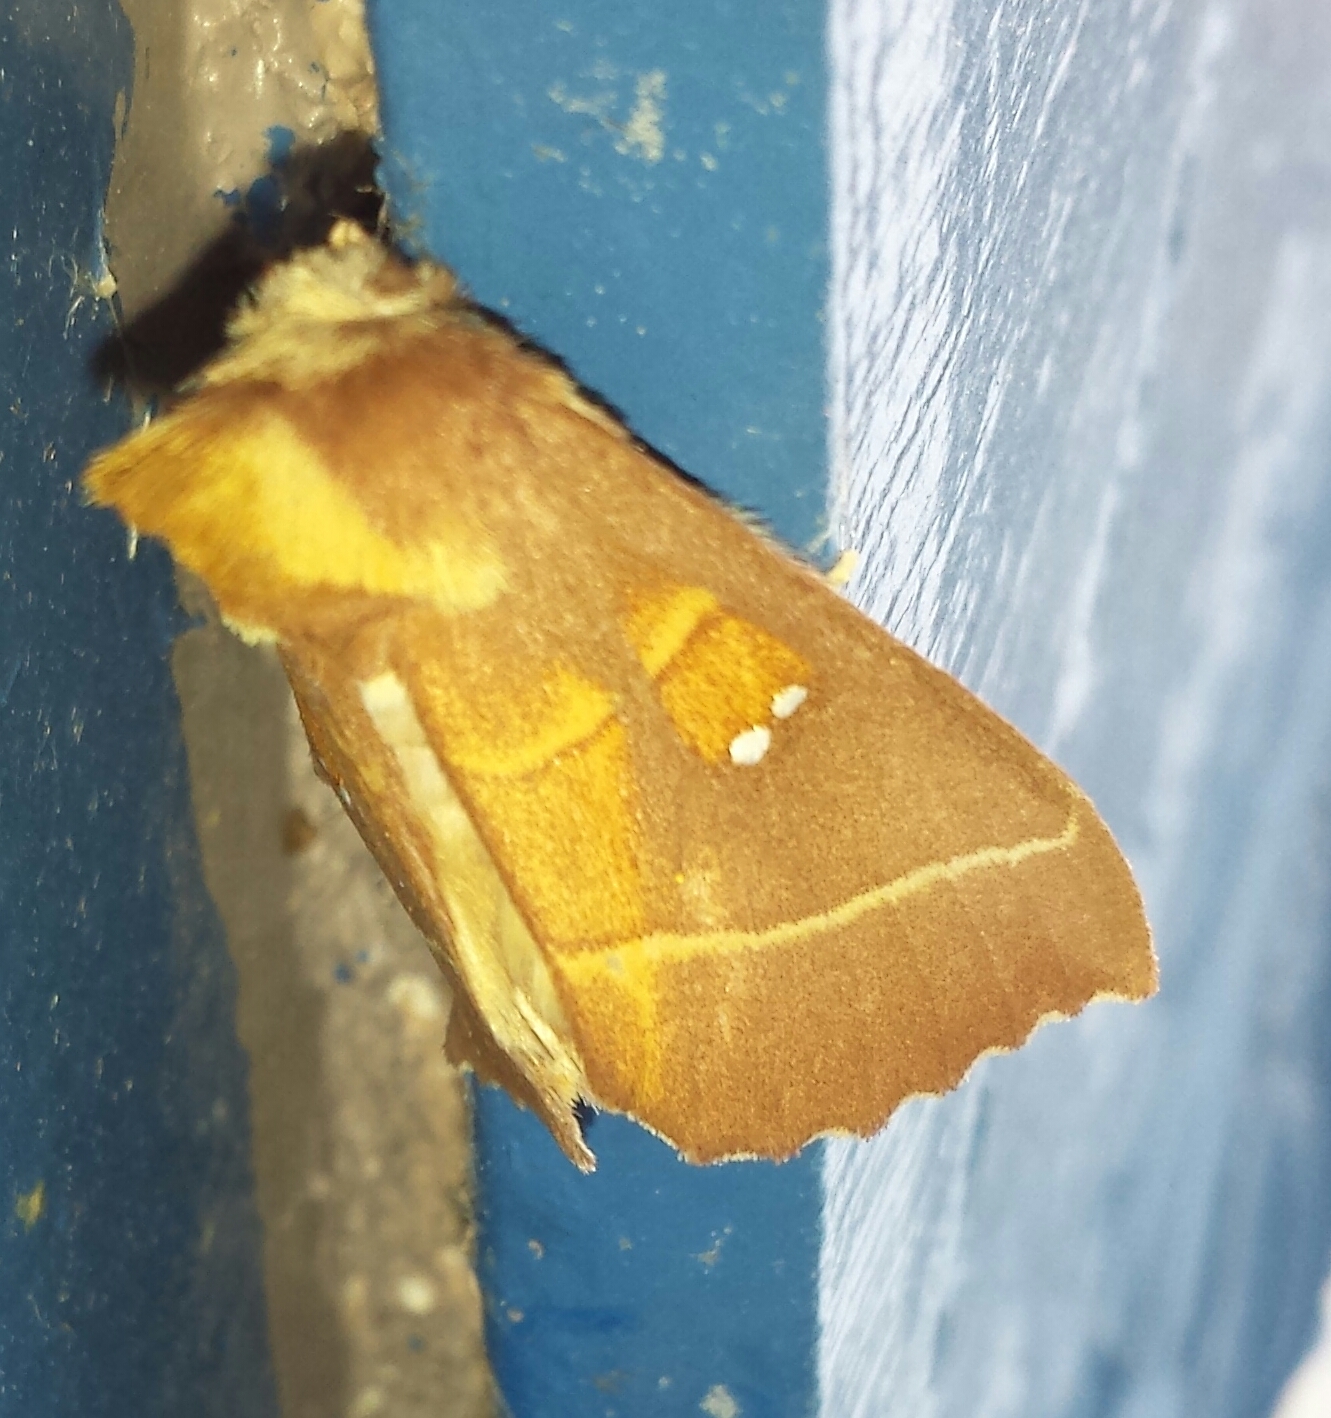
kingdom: Animalia
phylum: Arthropoda
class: Insecta
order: Lepidoptera
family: Notodontidae
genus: Nadata
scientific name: Nadata gibbosa
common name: White-dotted prominent
